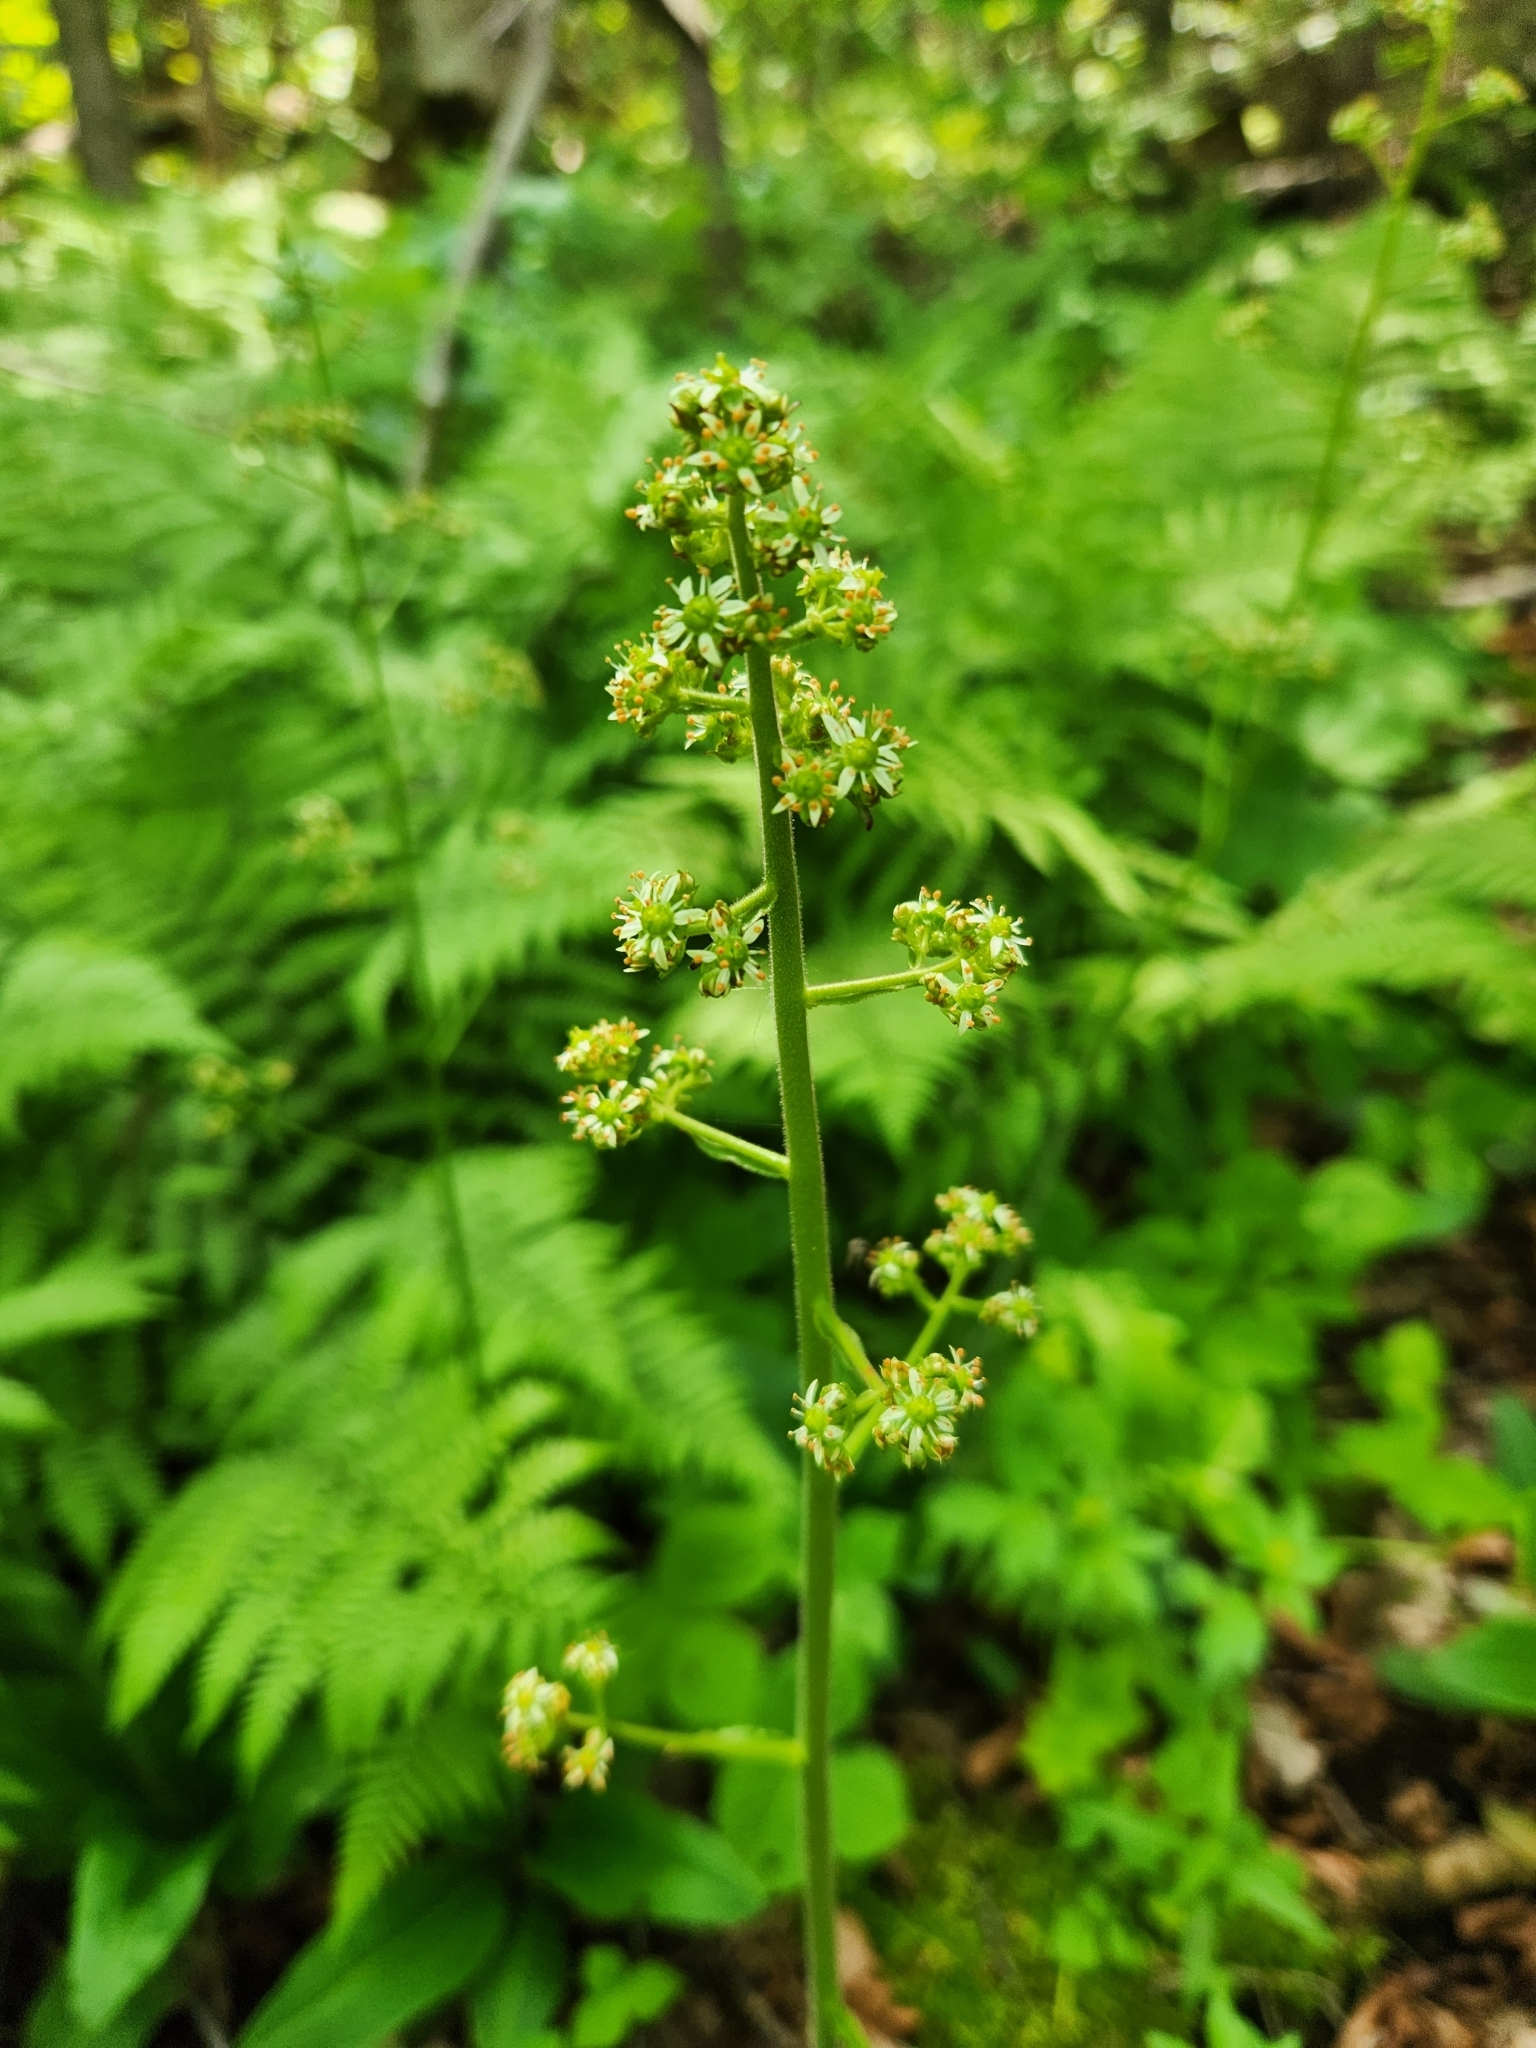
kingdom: Plantae
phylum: Tracheophyta
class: Magnoliopsida
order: Saxifragales
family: Saxifragaceae
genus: Micranthes
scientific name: Micranthes pensylvanica
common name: Marsh saxifrage
